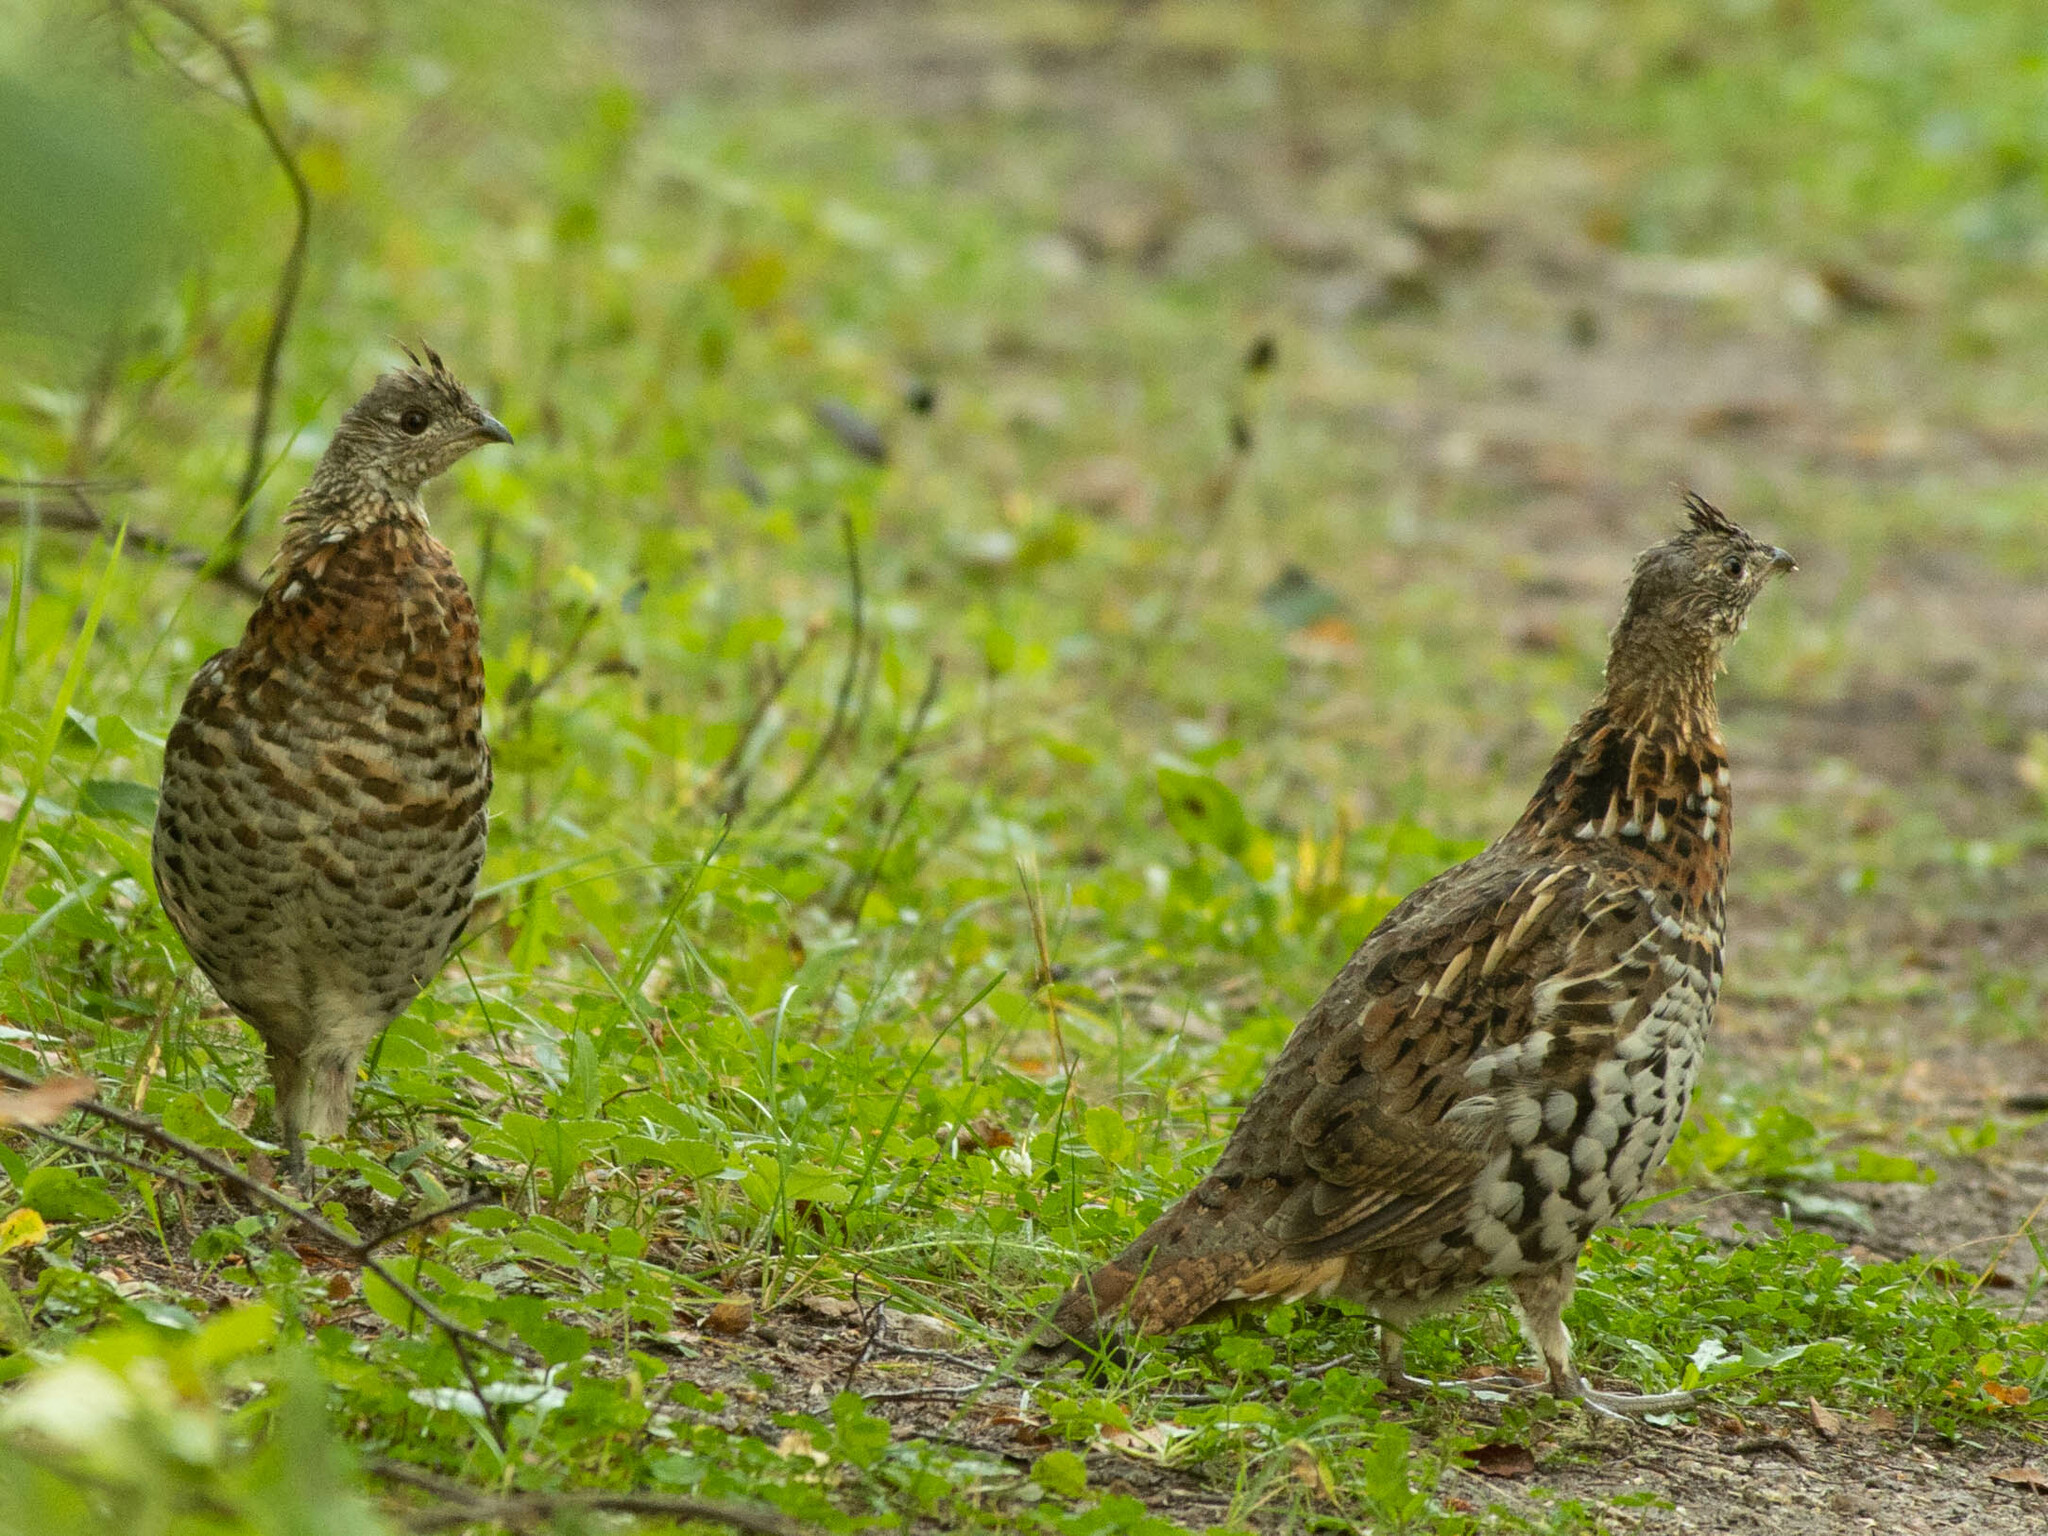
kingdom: Animalia
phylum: Chordata
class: Aves
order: Galliformes
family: Phasianidae
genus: Bonasa
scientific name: Bonasa umbellus
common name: Ruffed grouse
